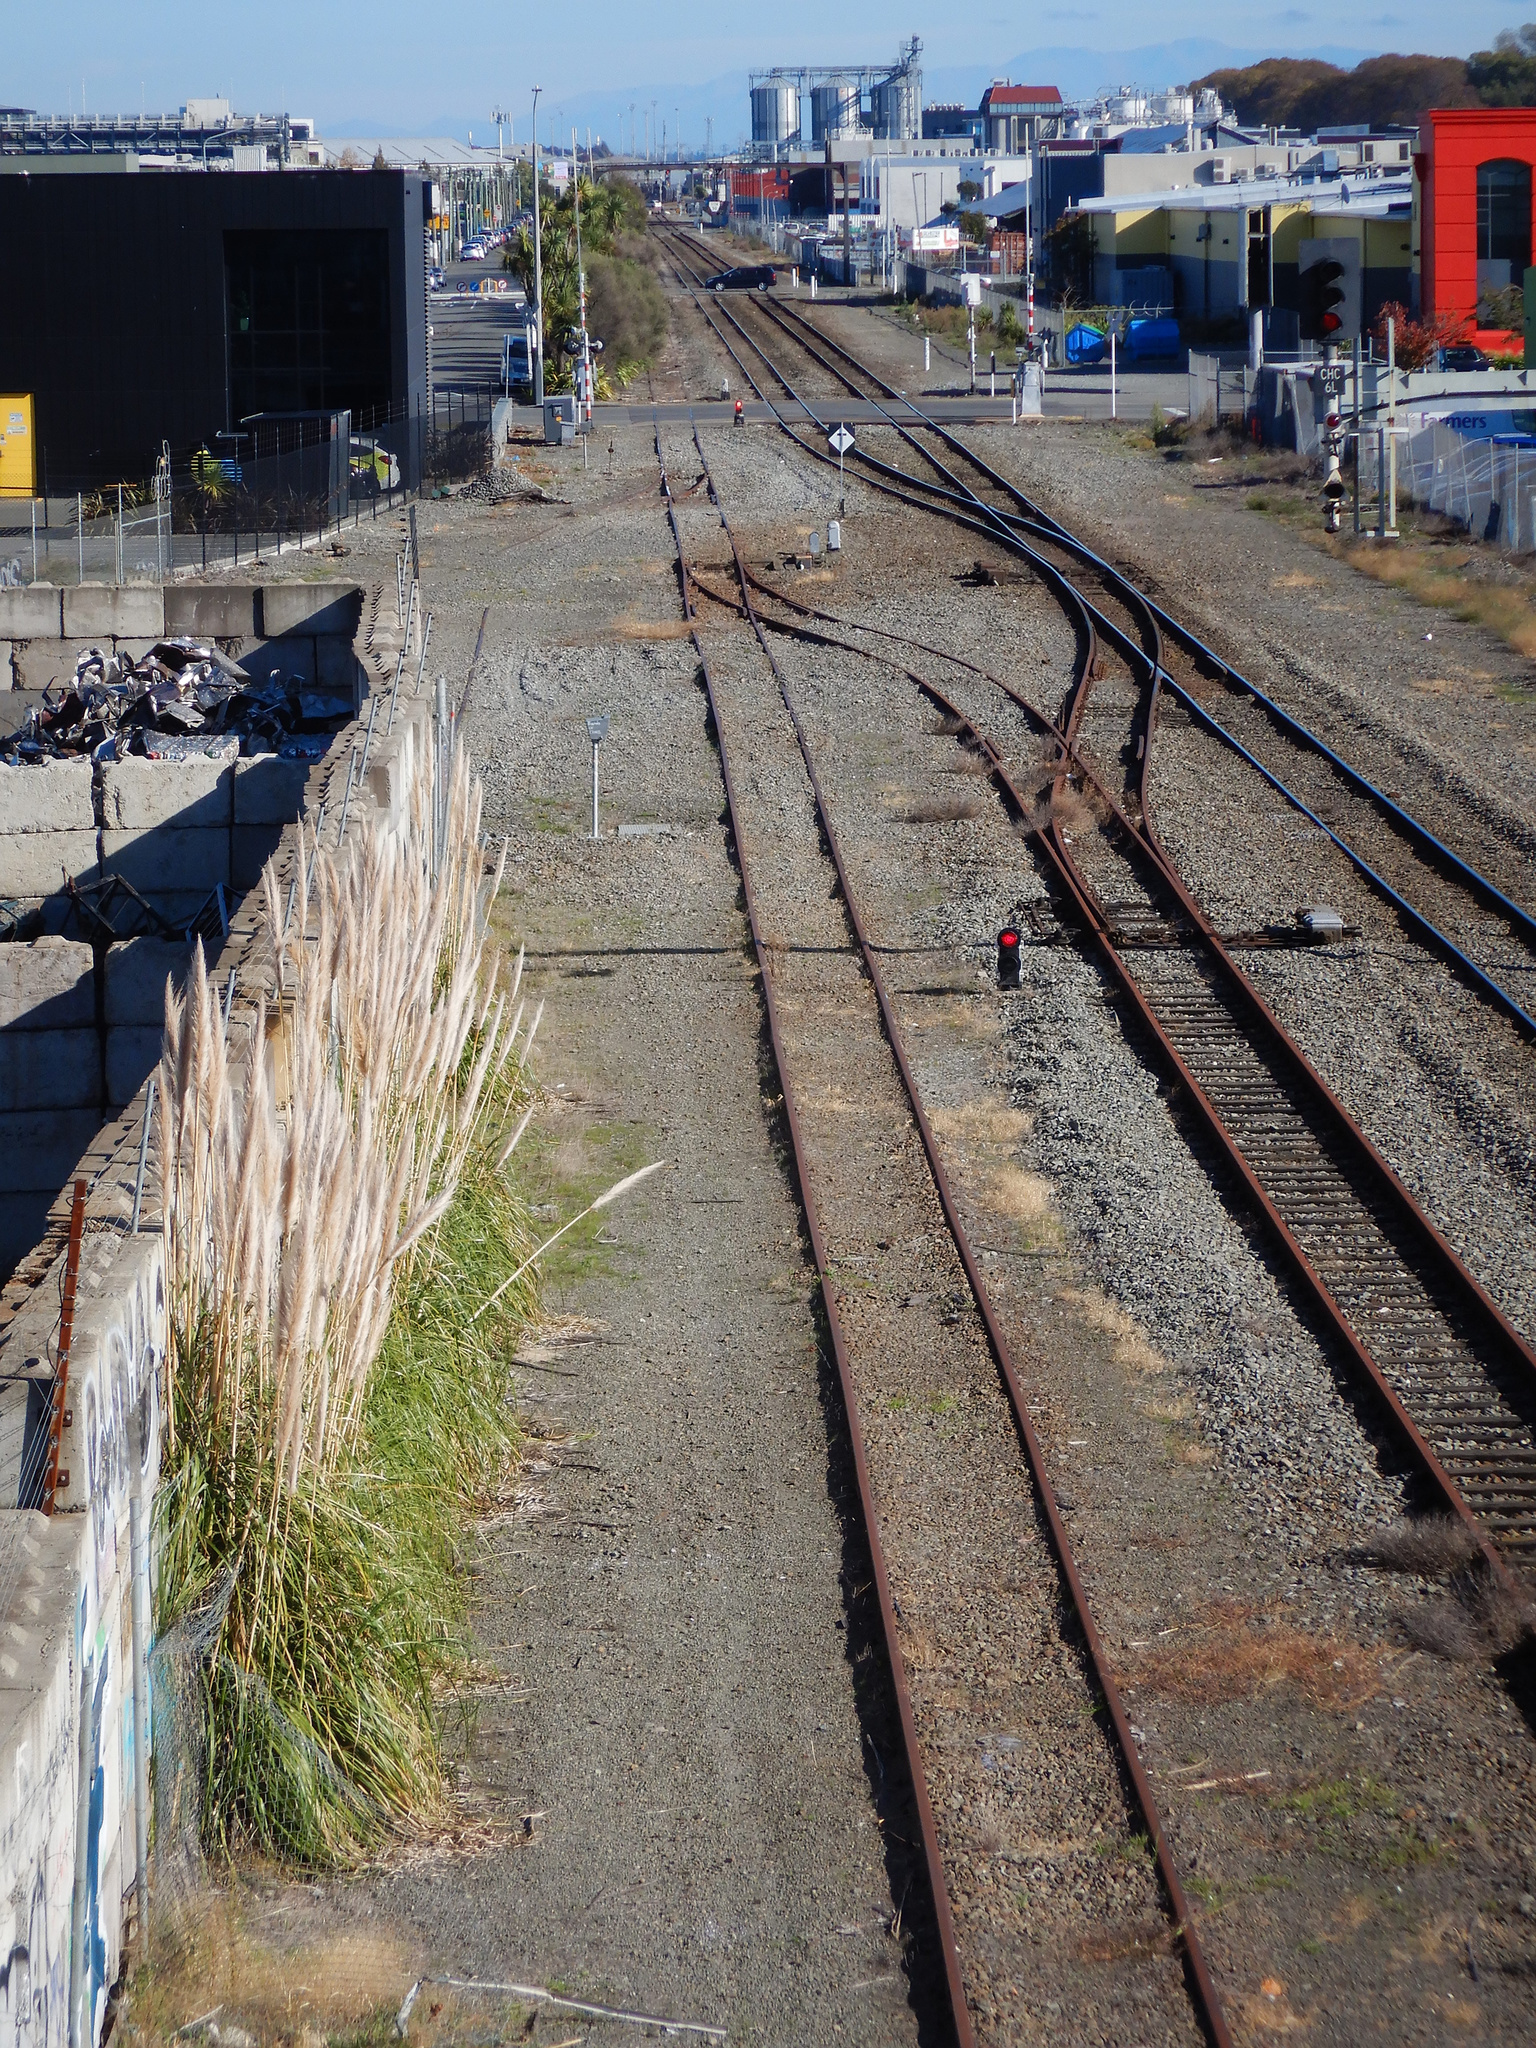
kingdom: Plantae
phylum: Tracheophyta
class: Liliopsida
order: Poales
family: Poaceae
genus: Cortaderia
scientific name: Cortaderia selloana
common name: Uruguayan pampas grass
